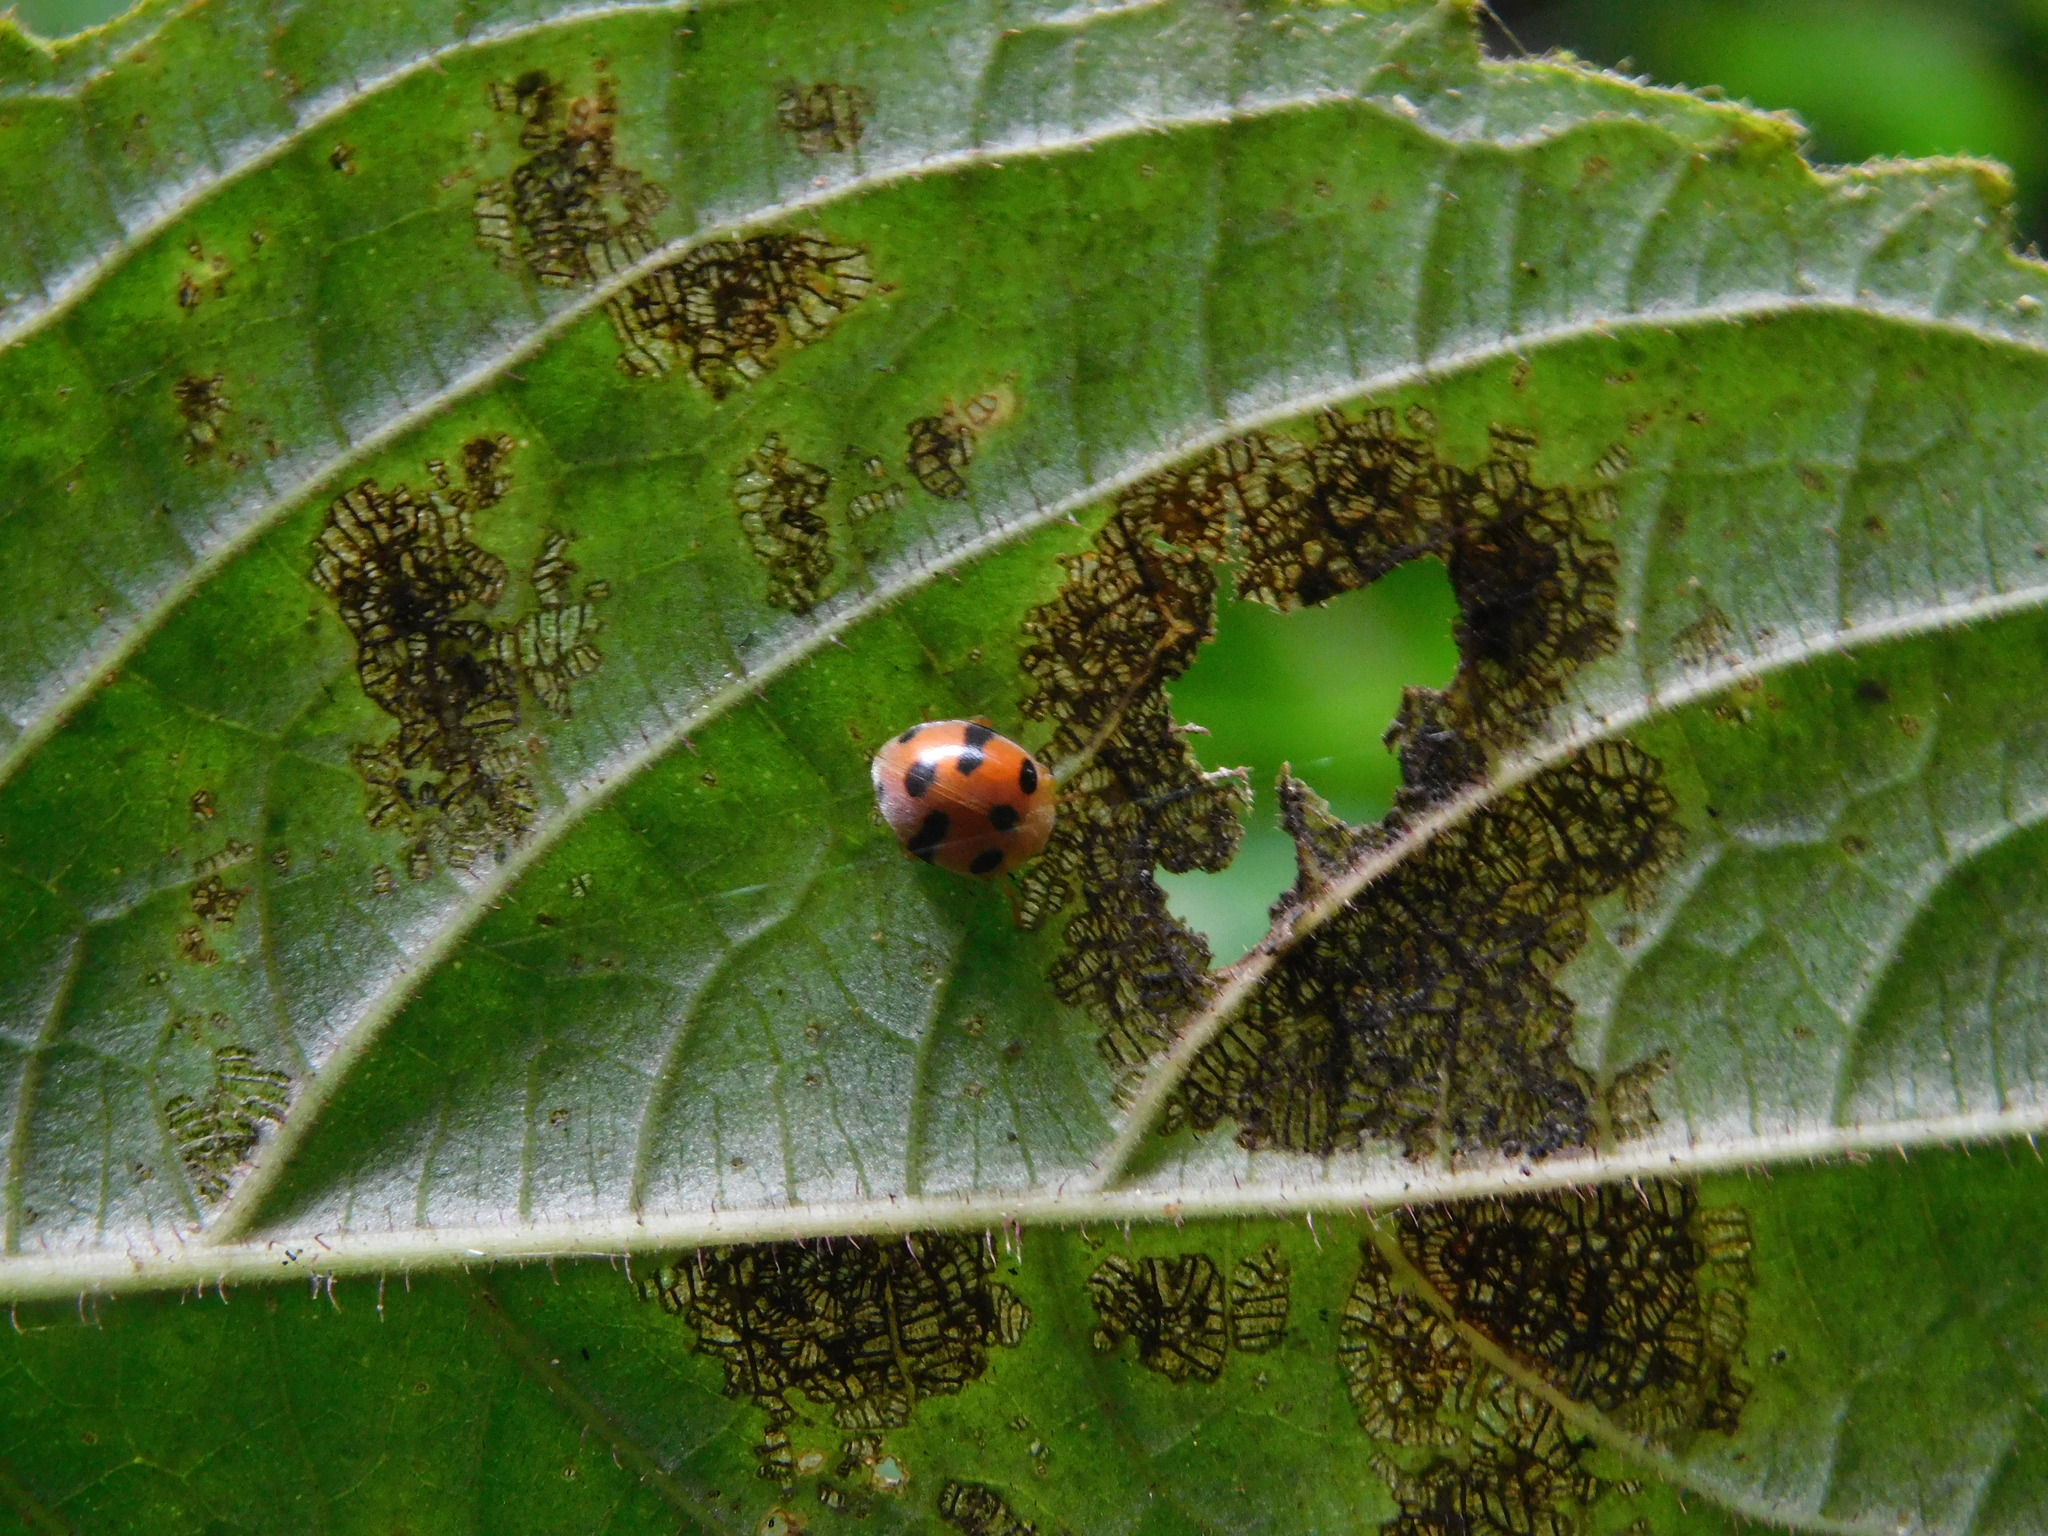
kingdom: Animalia
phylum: Arthropoda
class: Insecta
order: Coleoptera
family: Coccinellidae
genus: Henosepilachna
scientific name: Henosepilachna
